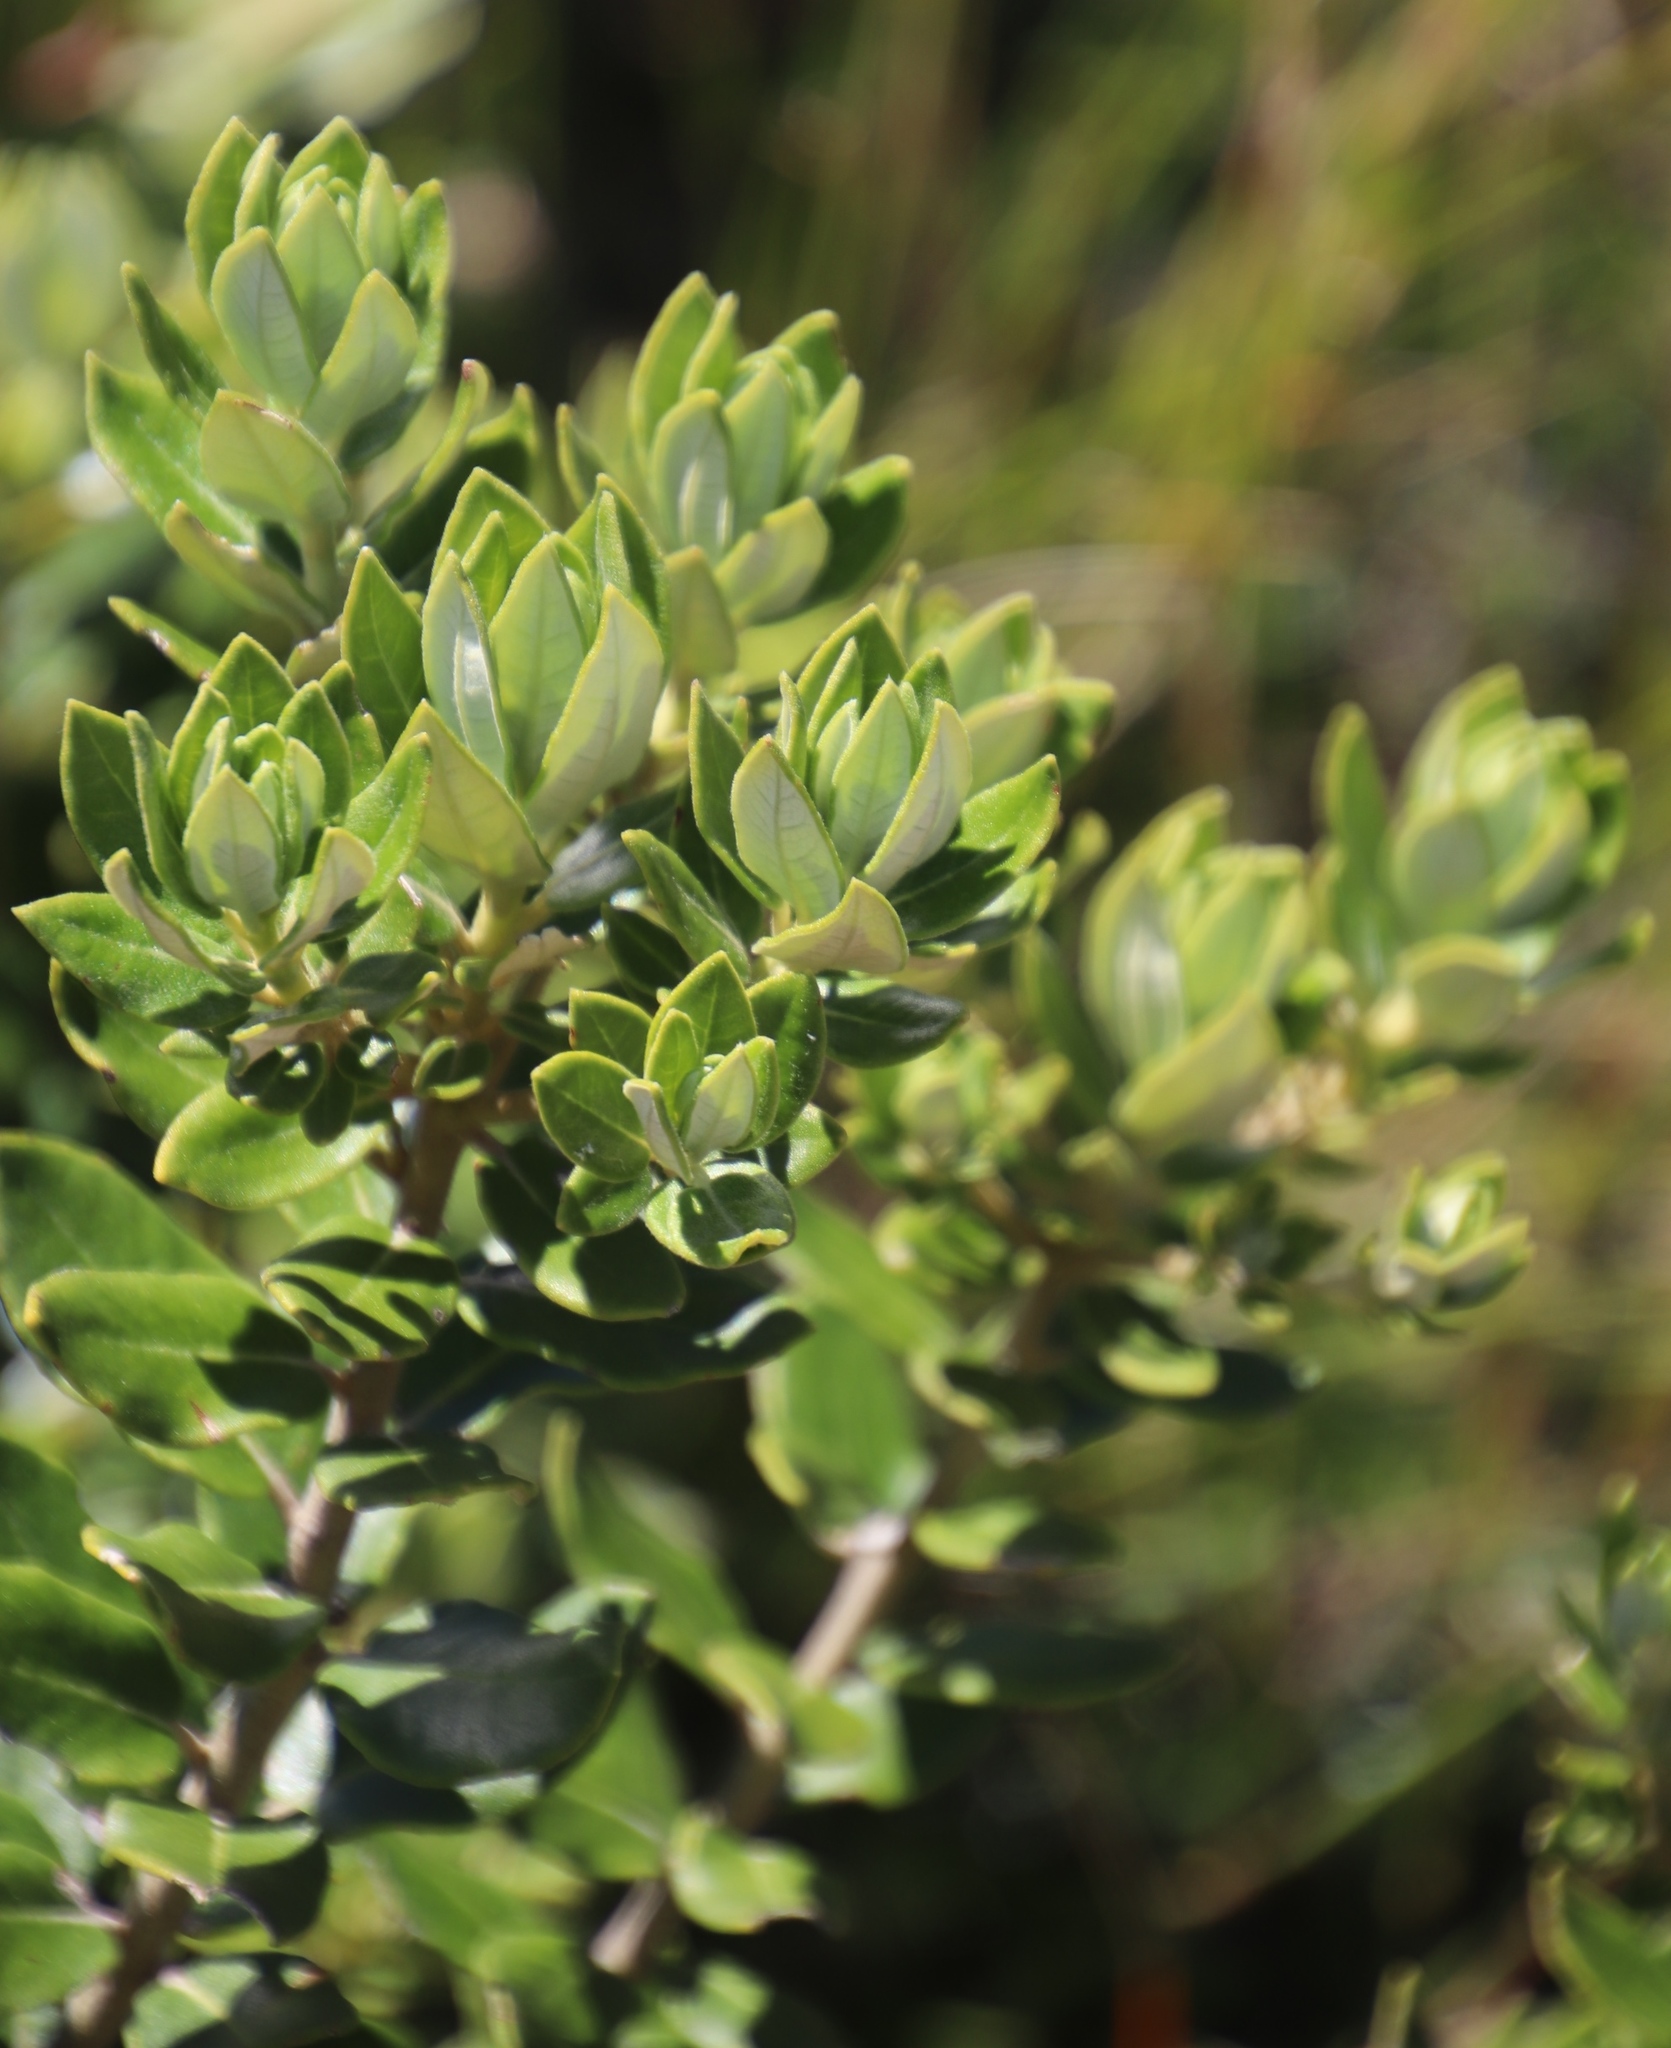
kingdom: Plantae
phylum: Tracheophyta
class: Magnoliopsida
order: Rosales
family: Rhamnaceae
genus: Phylica
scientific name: Phylica buxifolia
